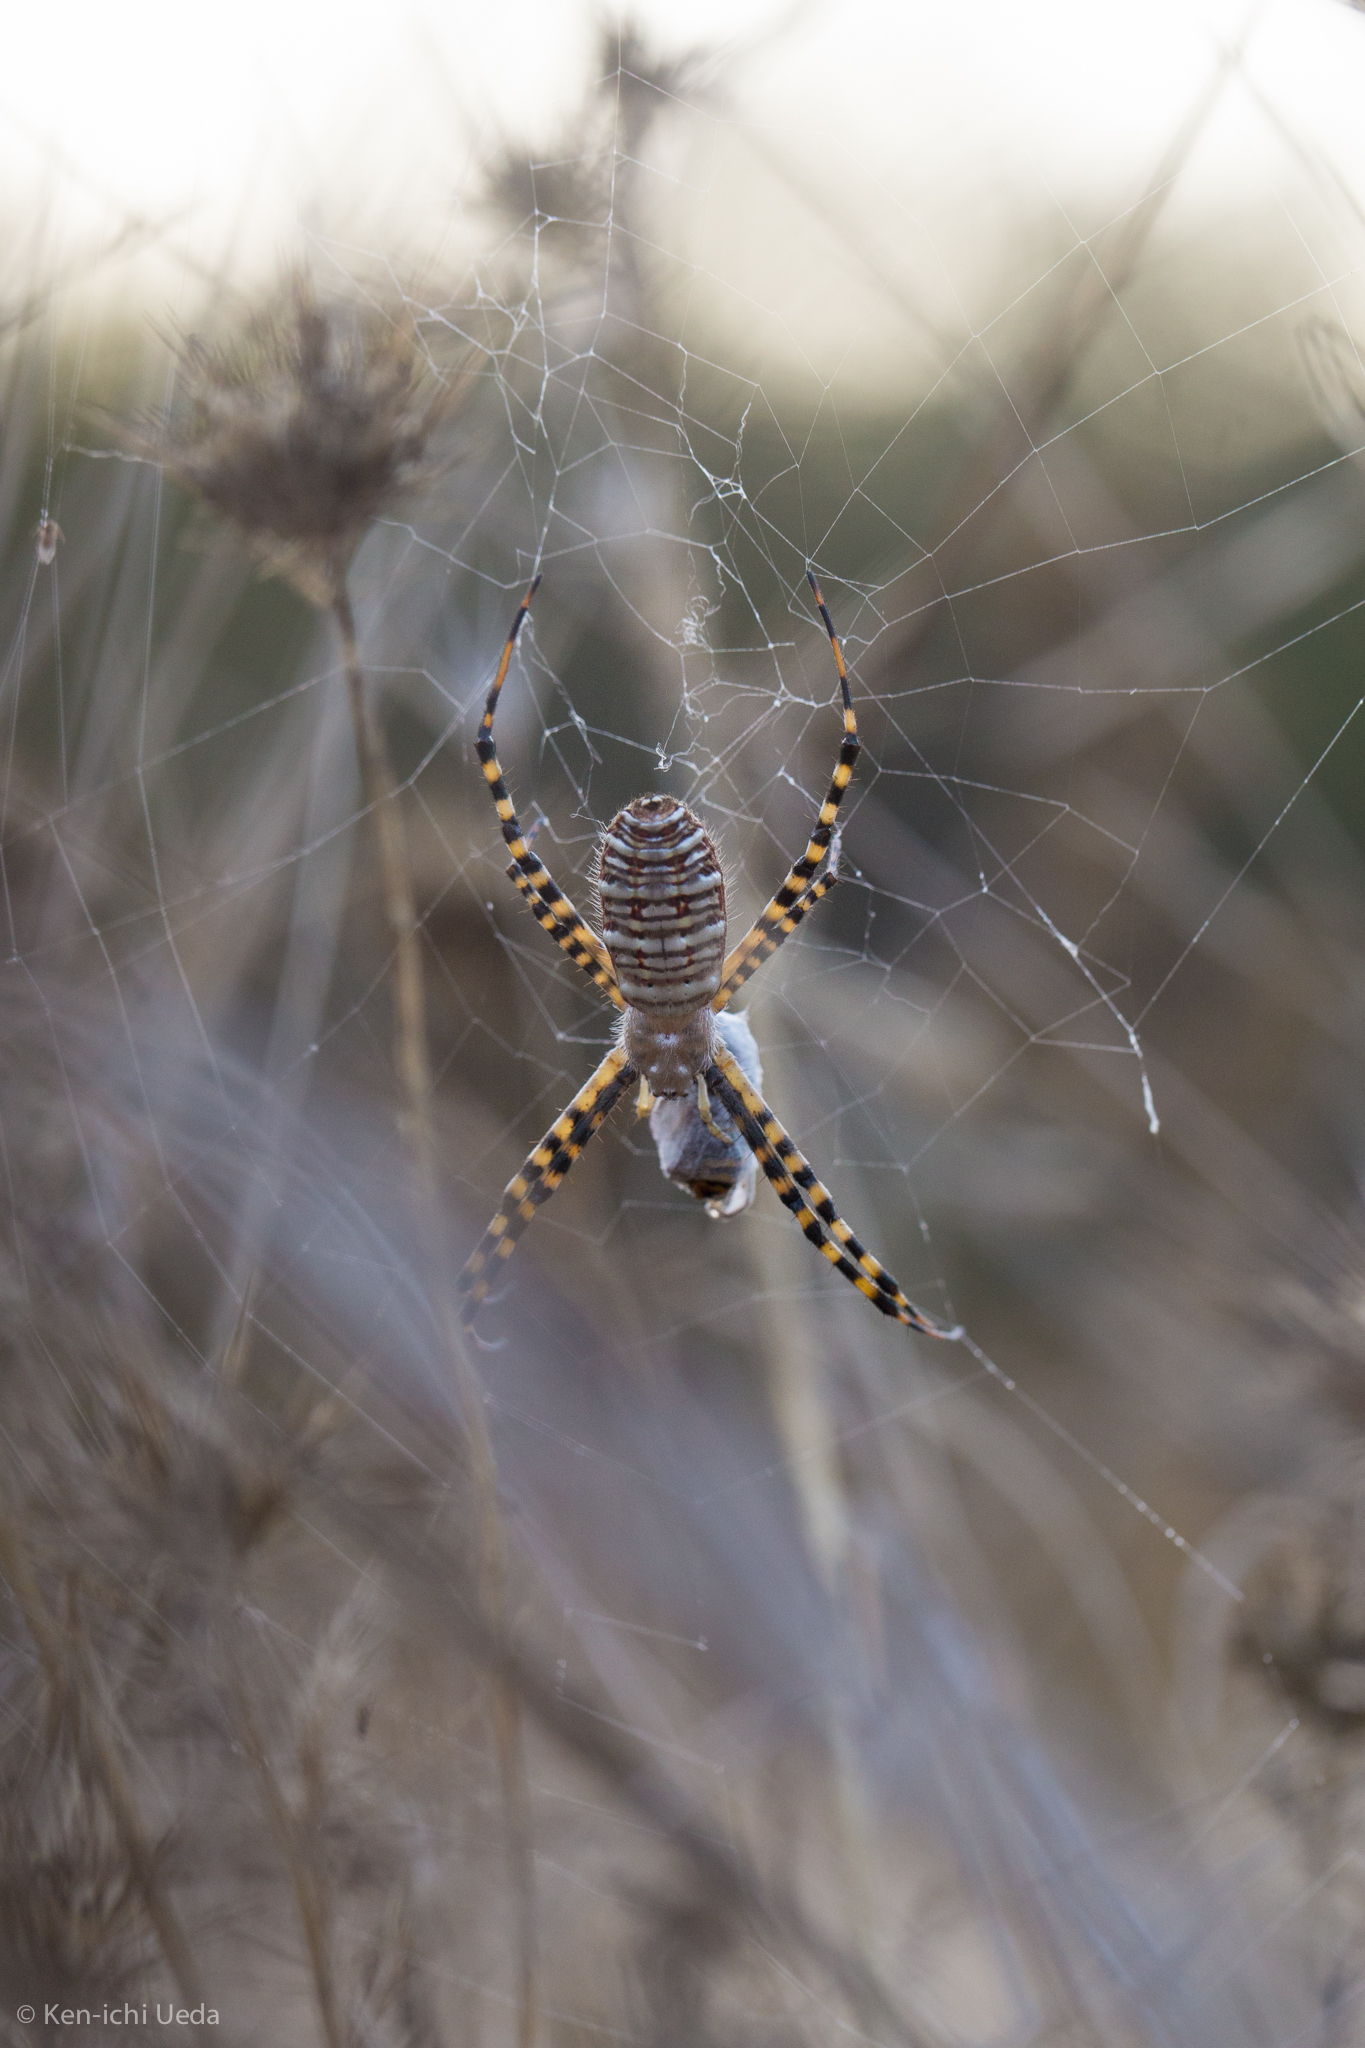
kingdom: Animalia
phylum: Arthropoda
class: Arachnida
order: Araneae
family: Araneidae
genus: Argiope
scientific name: Argiope trifasciata
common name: Banded garden spider
